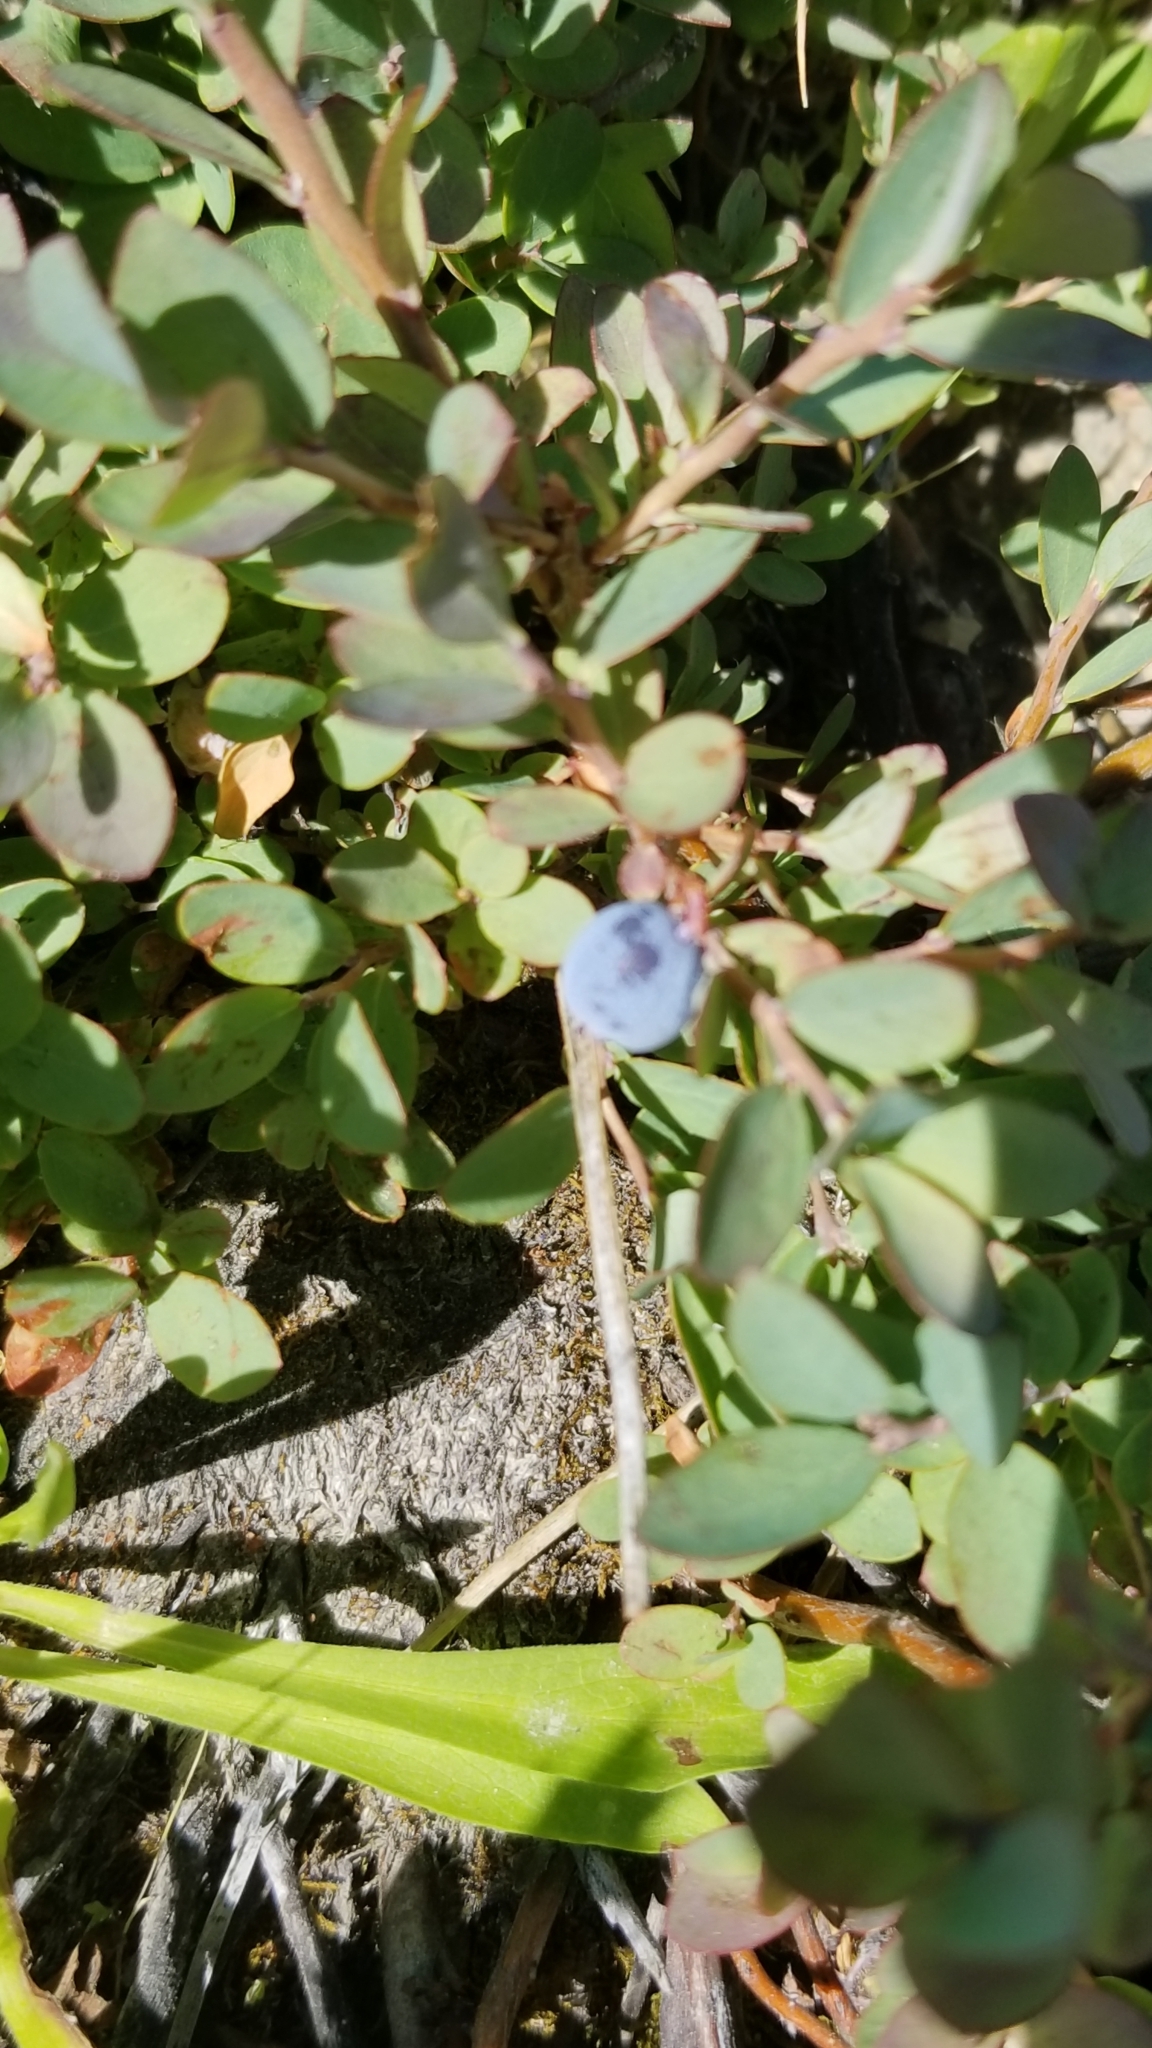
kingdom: Plantae
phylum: Tracheophyta
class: Magnoliopsida
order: Ericales
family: Ericaceae
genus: Vaccinium
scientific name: Vaccinium uliginosum
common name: Bog bilberry
